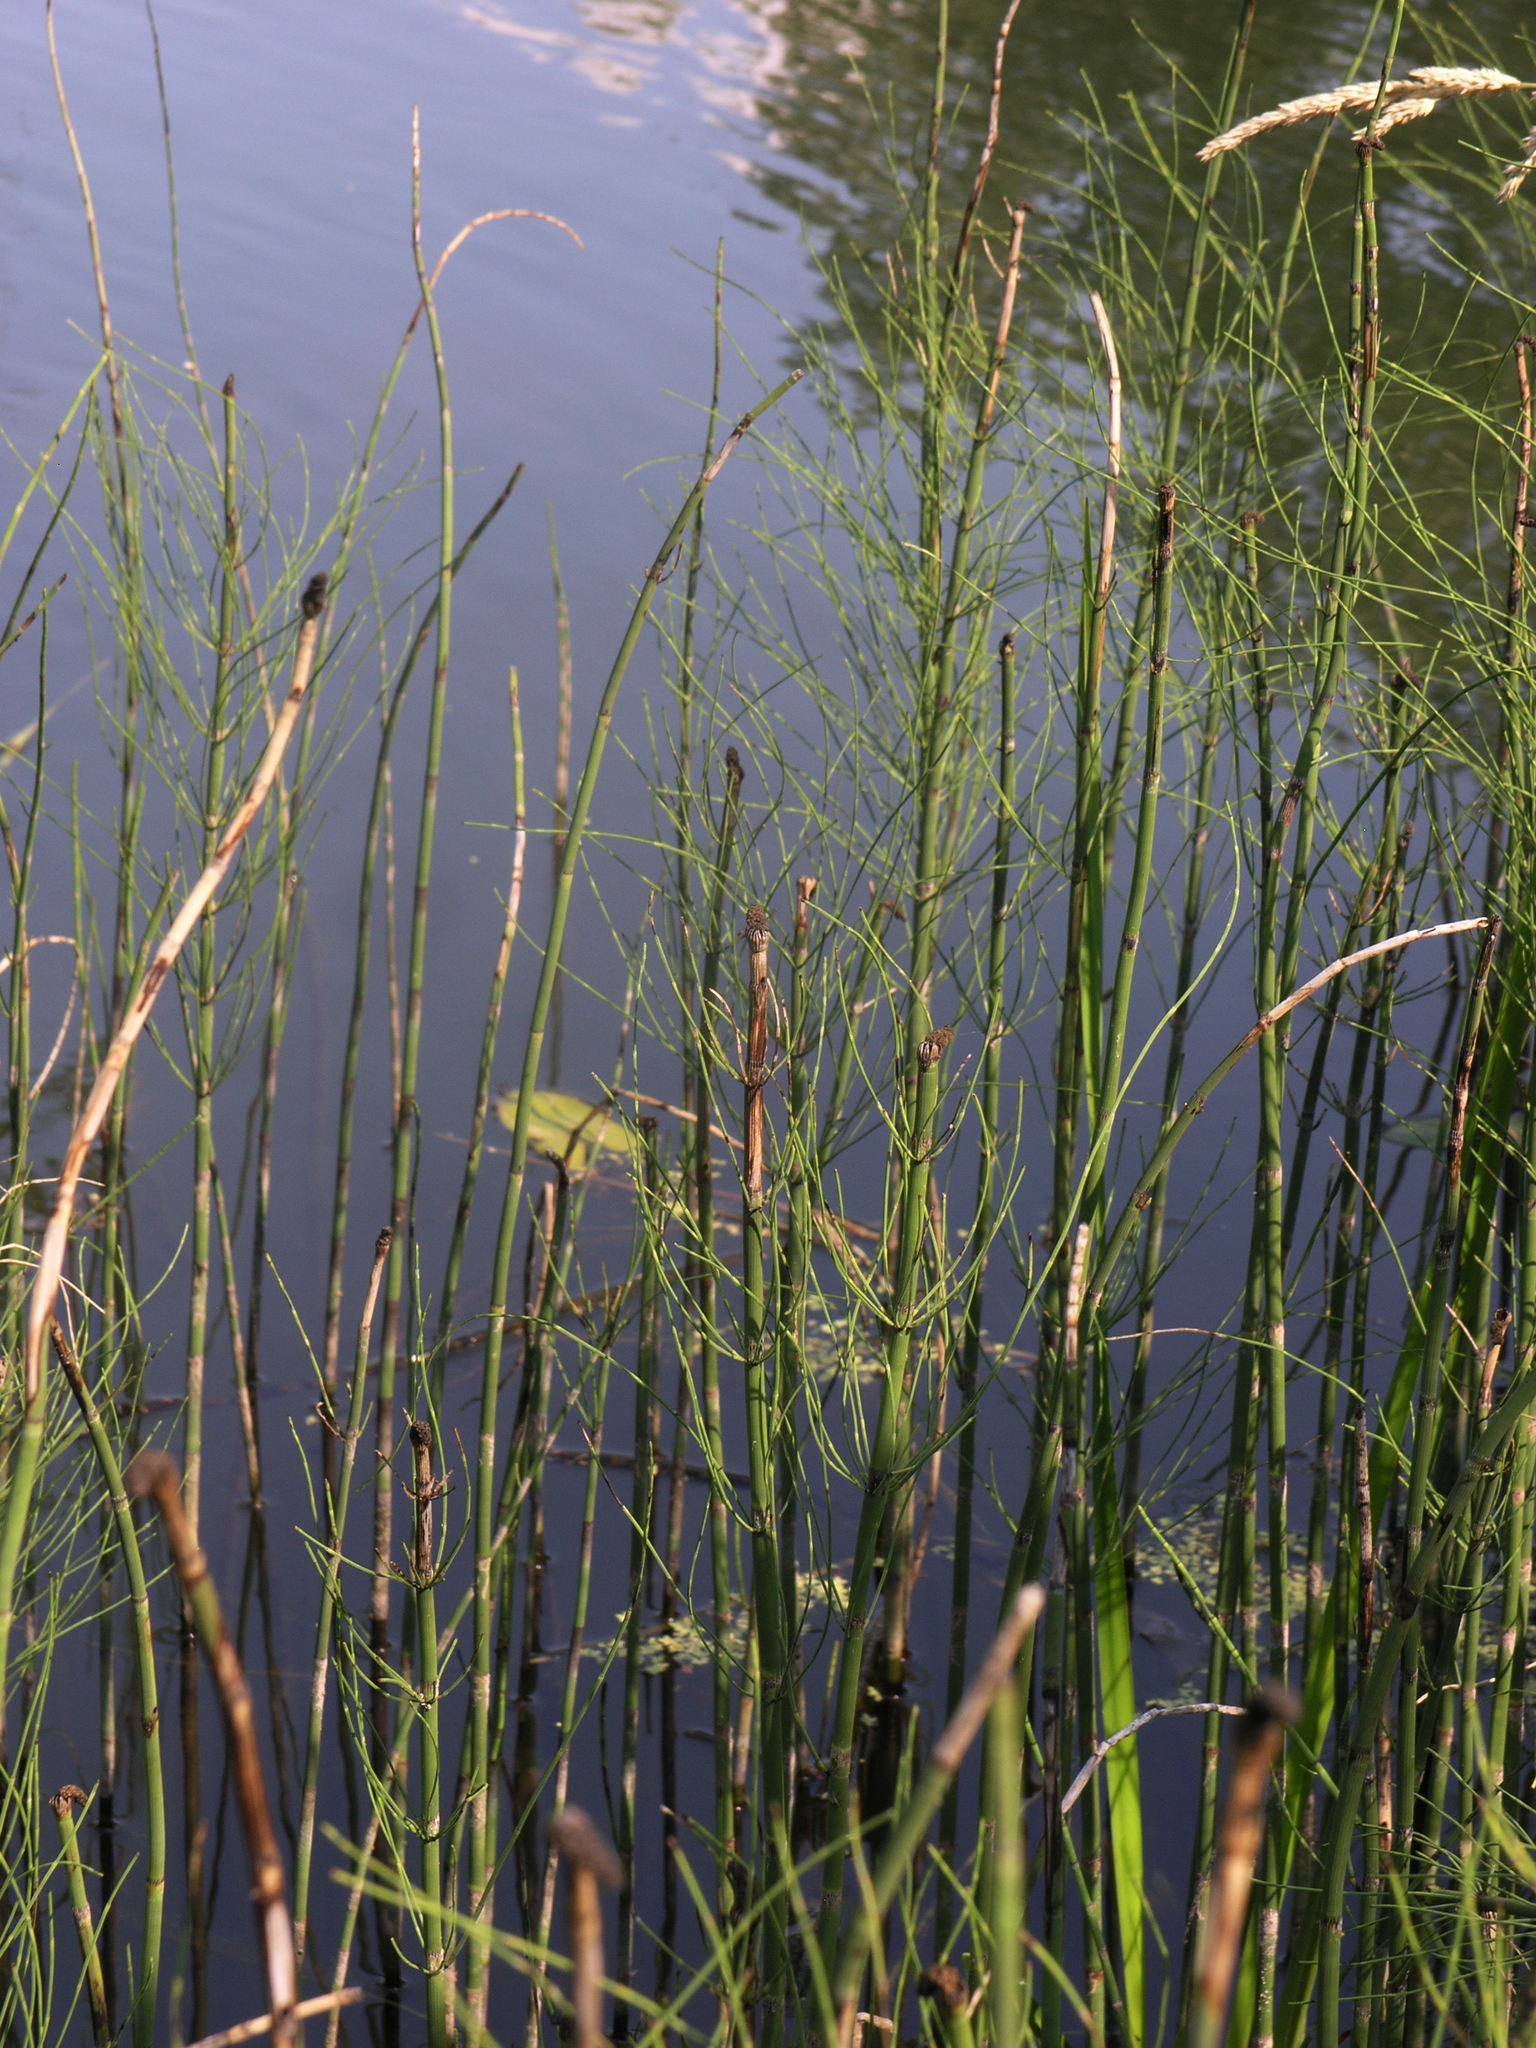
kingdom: Plantae
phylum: Tracheophyta
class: Polypodiopsida
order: Equisetales
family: Equisetaceae
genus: Equisetum
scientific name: Equisetum fluviatile
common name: Water horsetail
